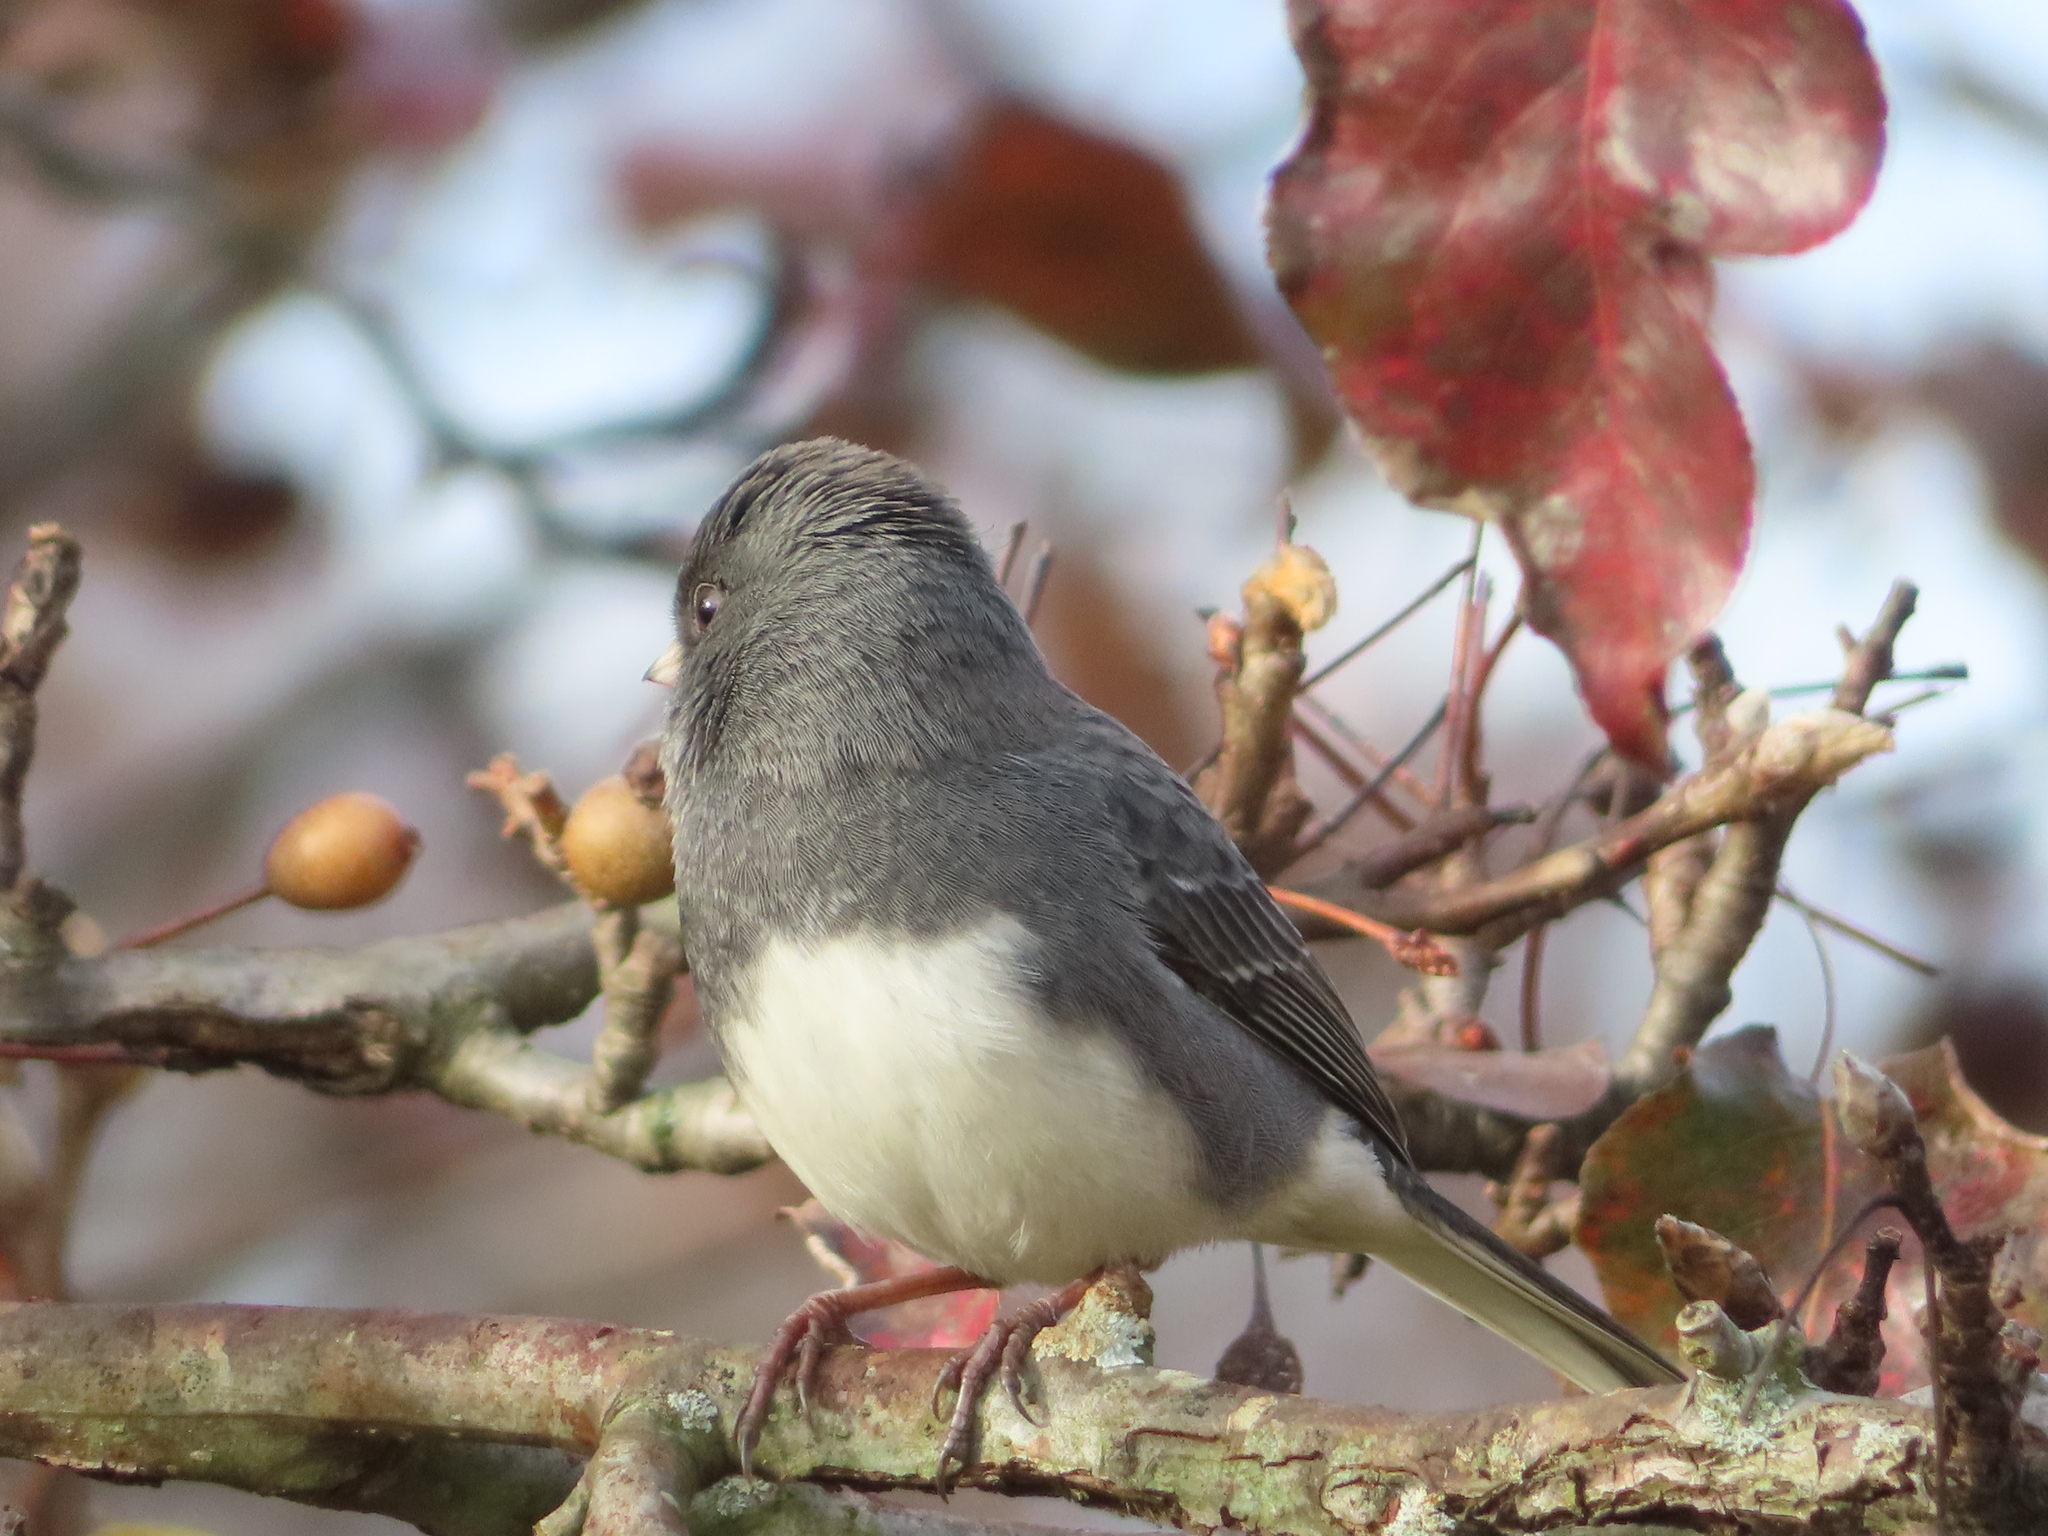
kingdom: Animalia
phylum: Chordata
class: Aves
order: Passeriformes
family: Passerellidae
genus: Junco
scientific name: Junco hyemalis
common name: Dark-eyed junco
